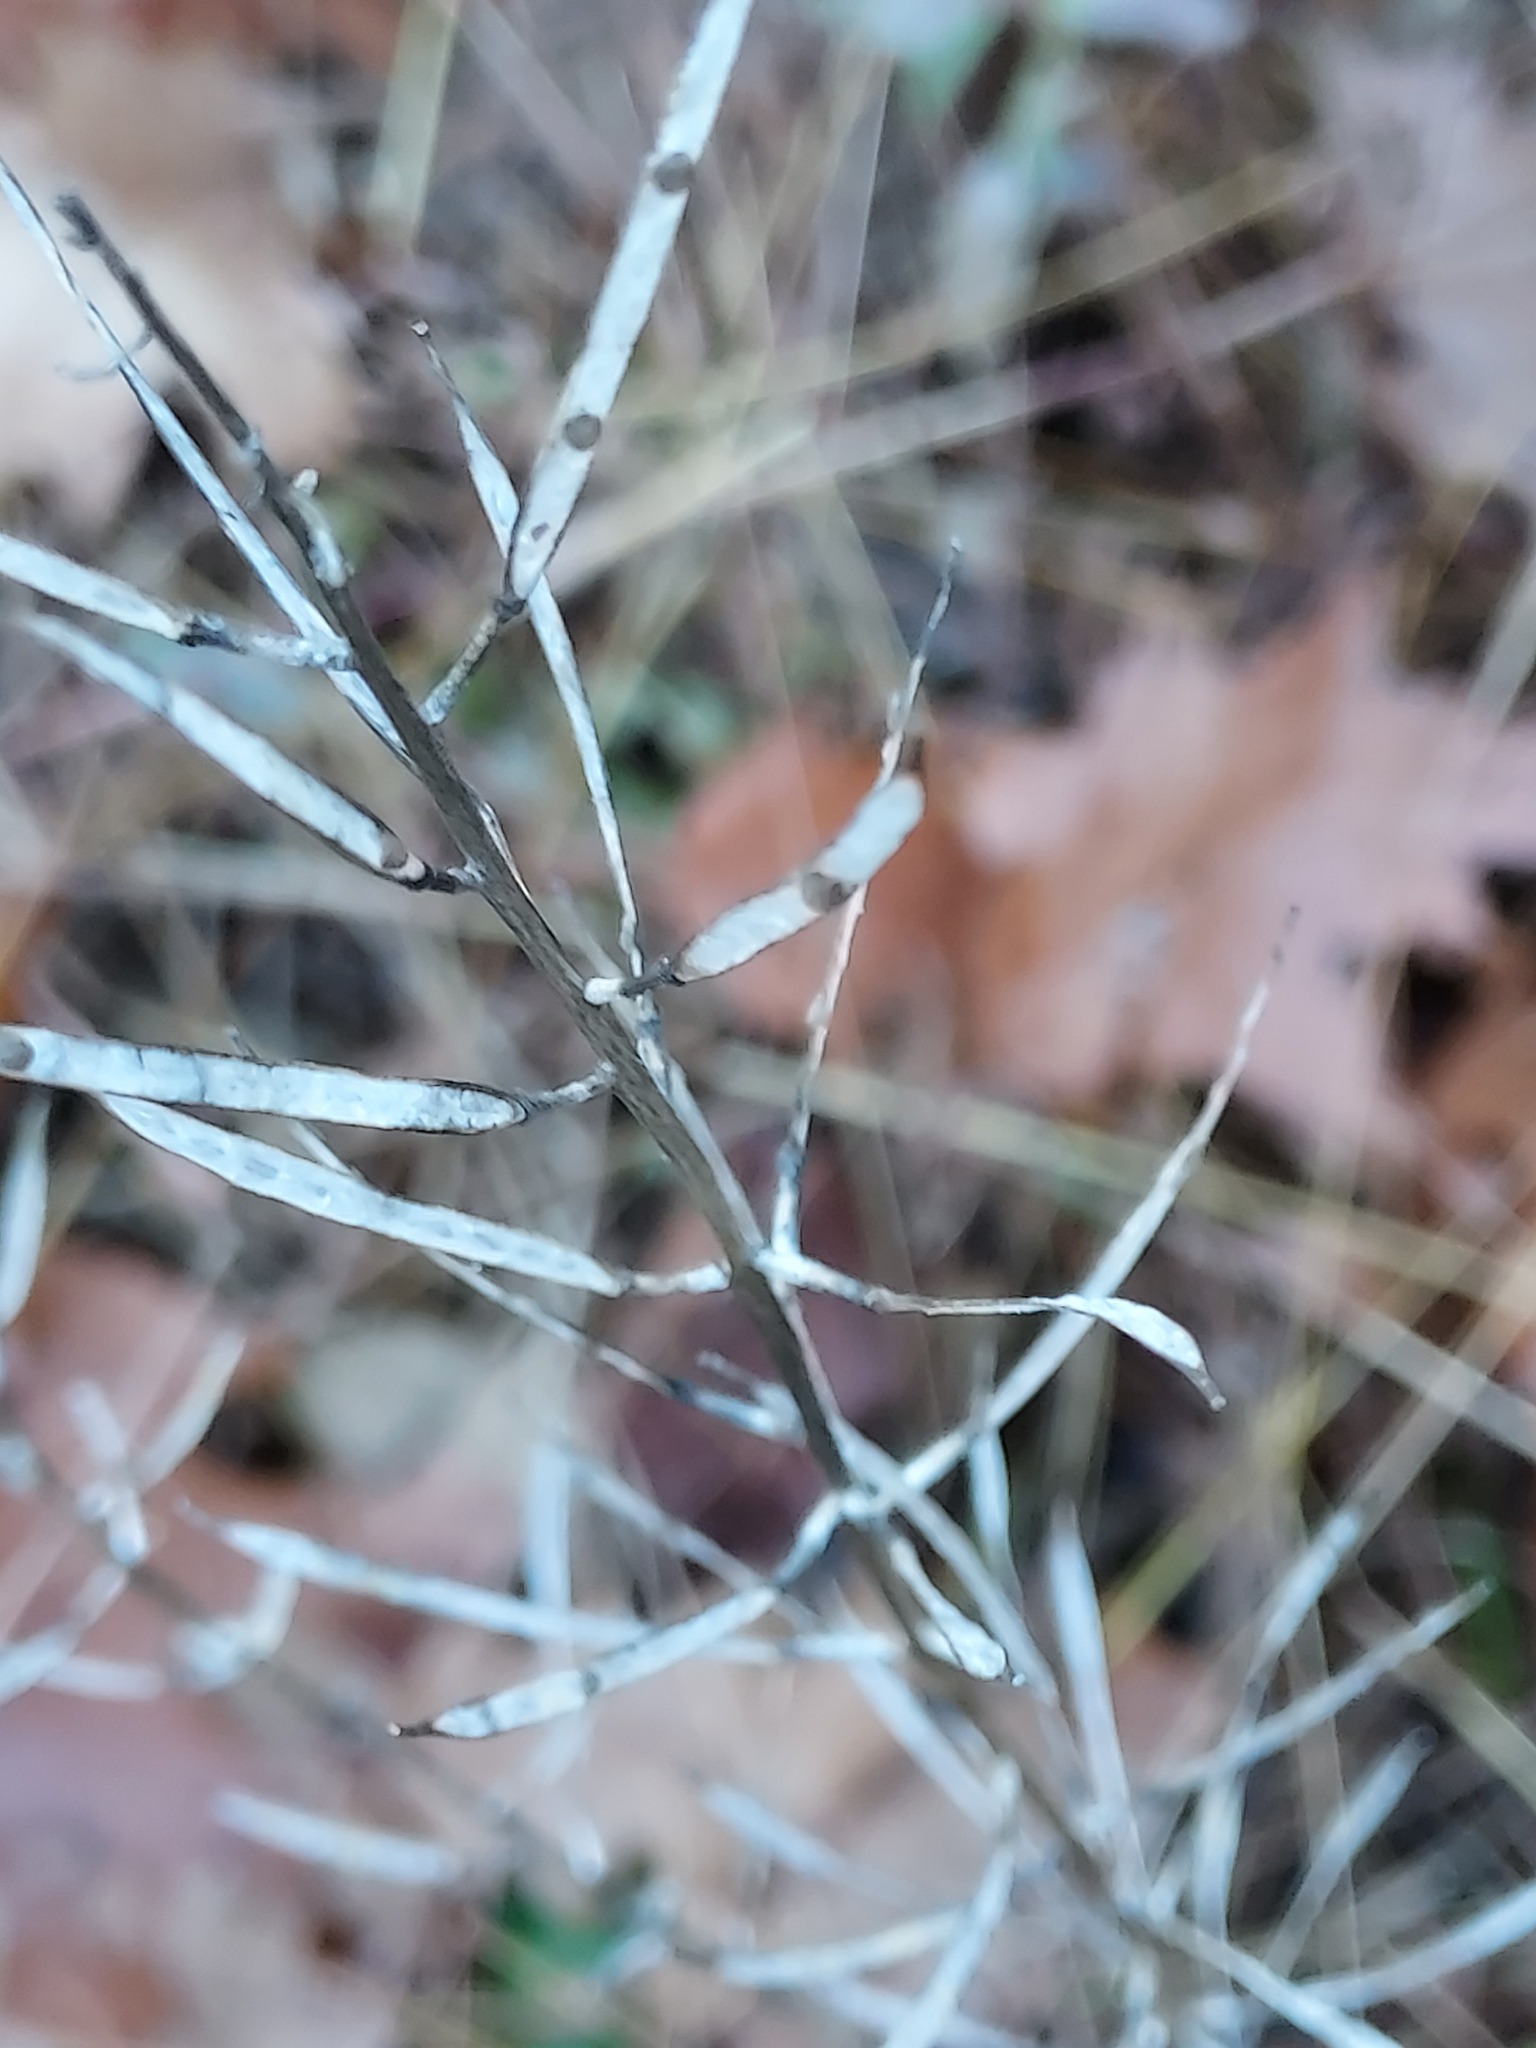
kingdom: Plantae
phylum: Tracheophyta
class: Magnoliopsida
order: Brassicales
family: Brassicaceae
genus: Alliaria
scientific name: Alliaria petiolata
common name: Garlic mustard
